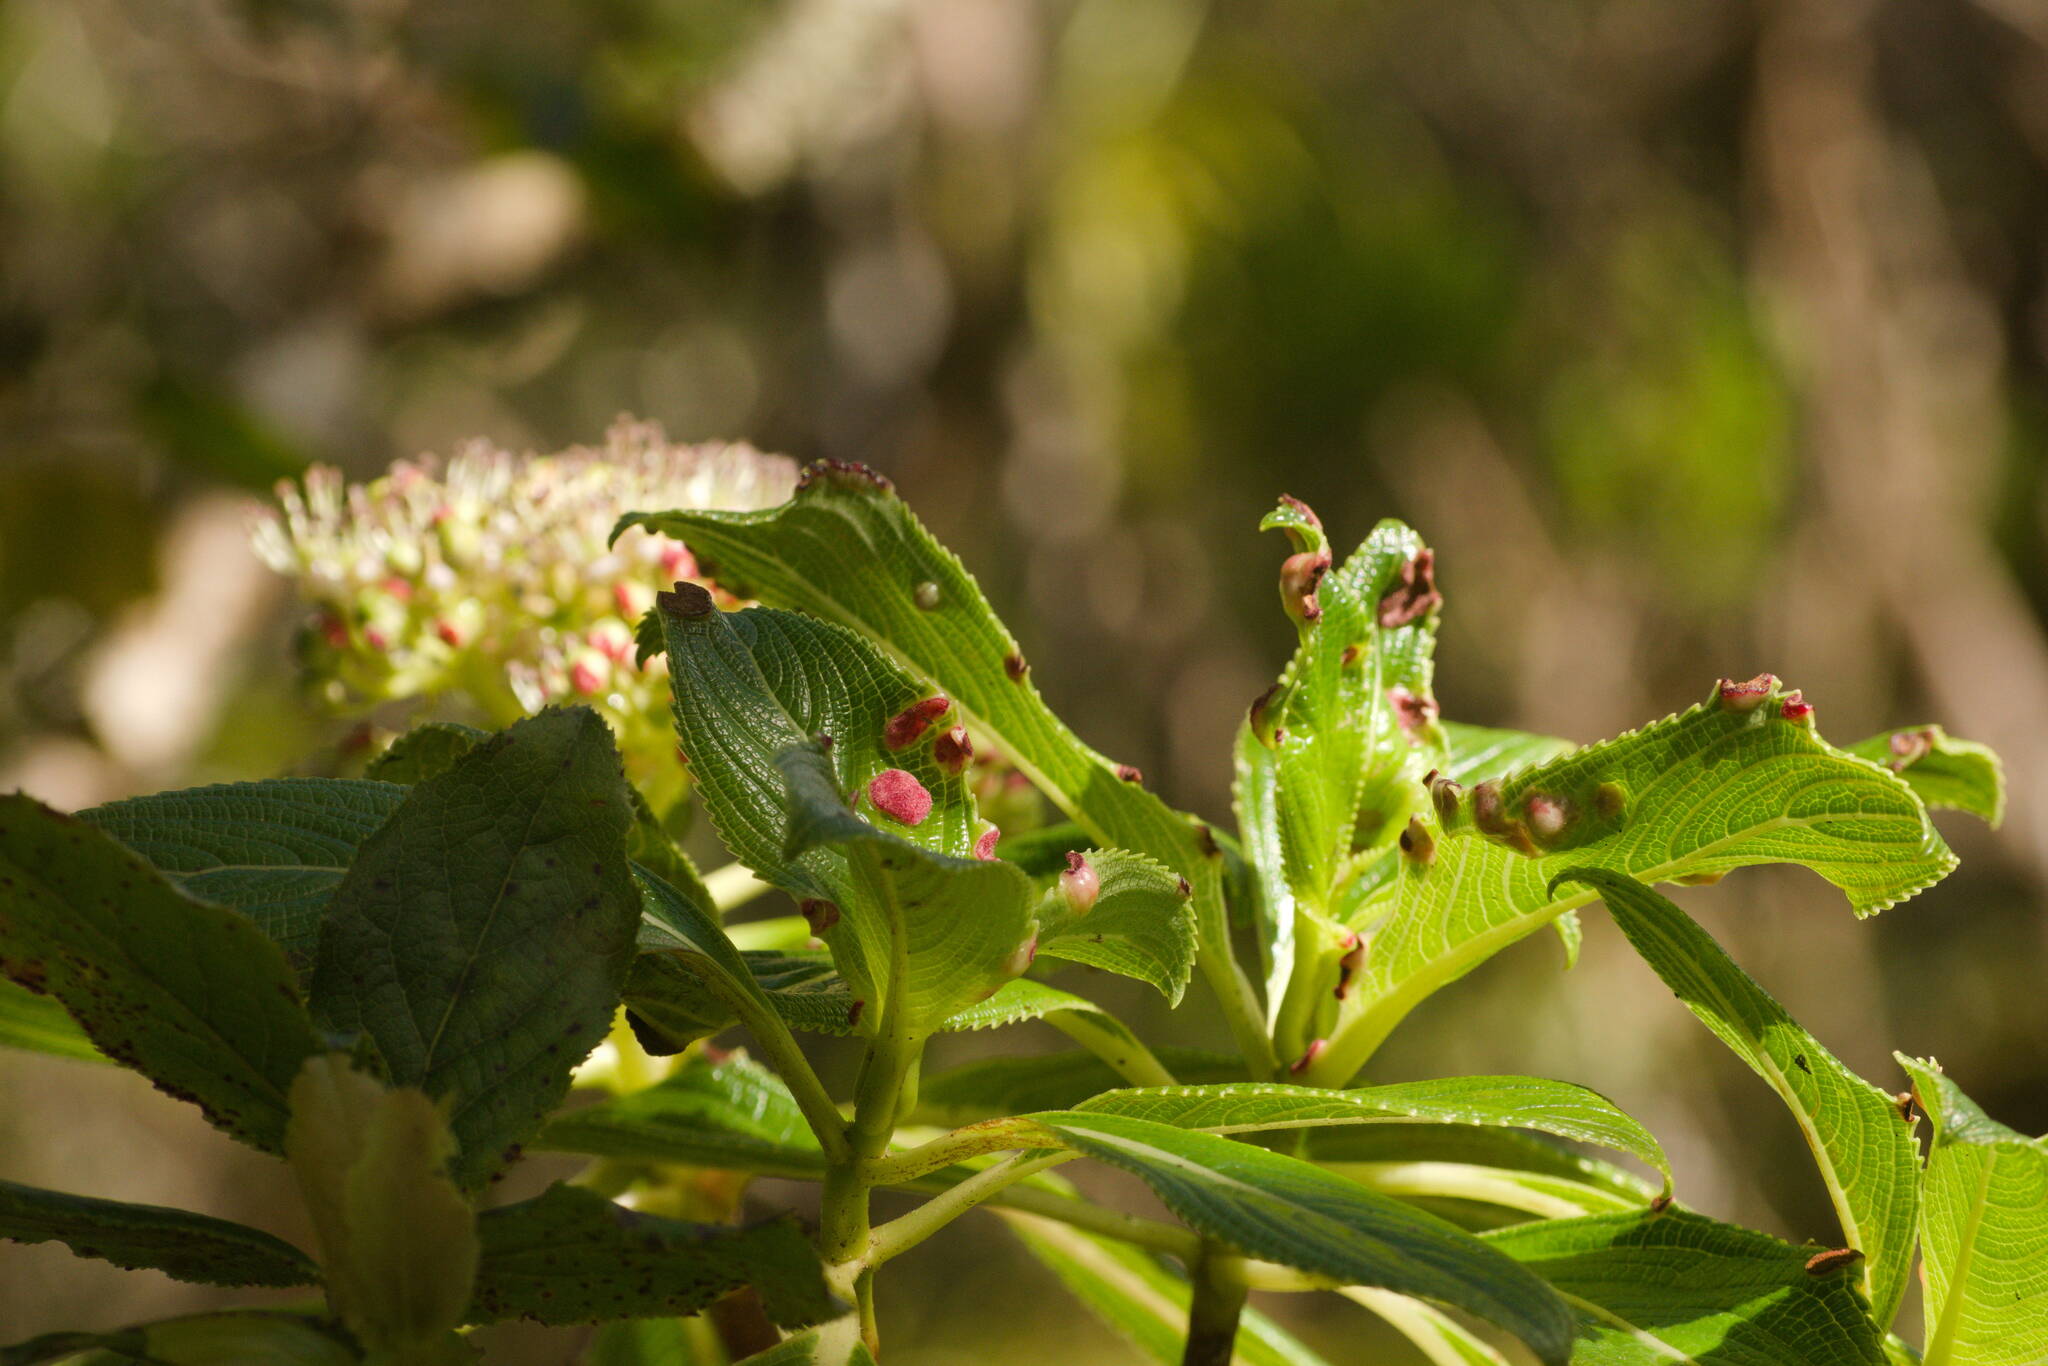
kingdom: Animalia
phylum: Arthropoda
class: Arachnida
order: Trombidiformes
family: Eriophyidae
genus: Aculus
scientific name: Aculus
